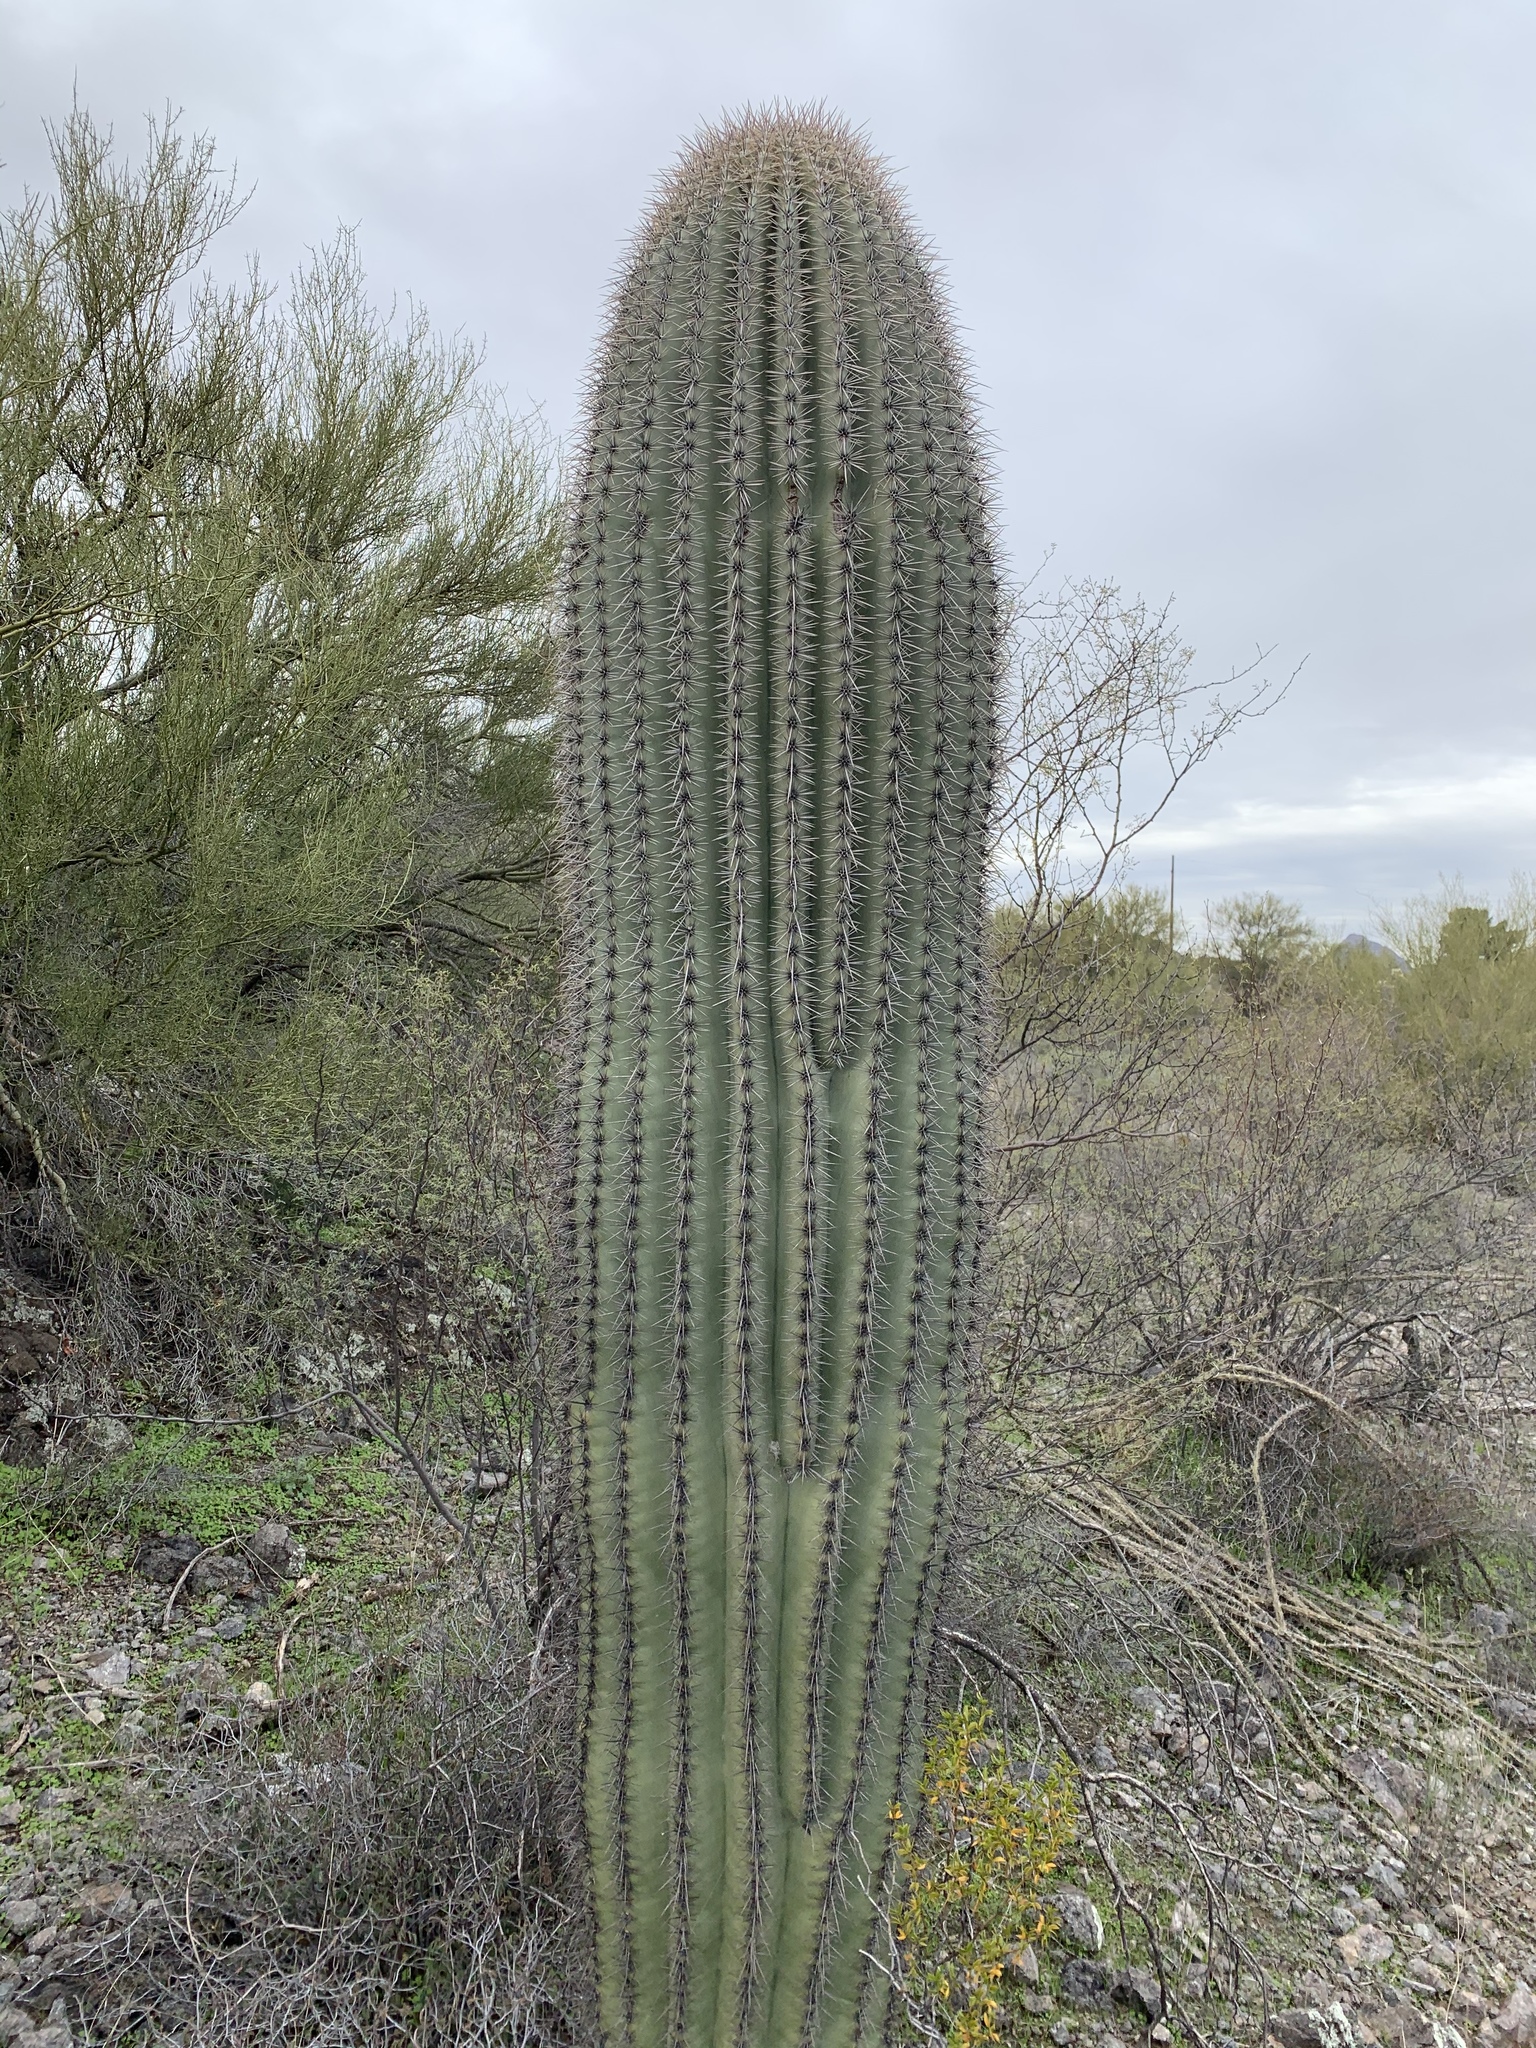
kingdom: Plantae
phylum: Tracheophyta
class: Magnoliopsida
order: Caryophyllales
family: Cactaceae
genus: Carnegiea
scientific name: Carnegiea gigantea
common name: Saguaro
